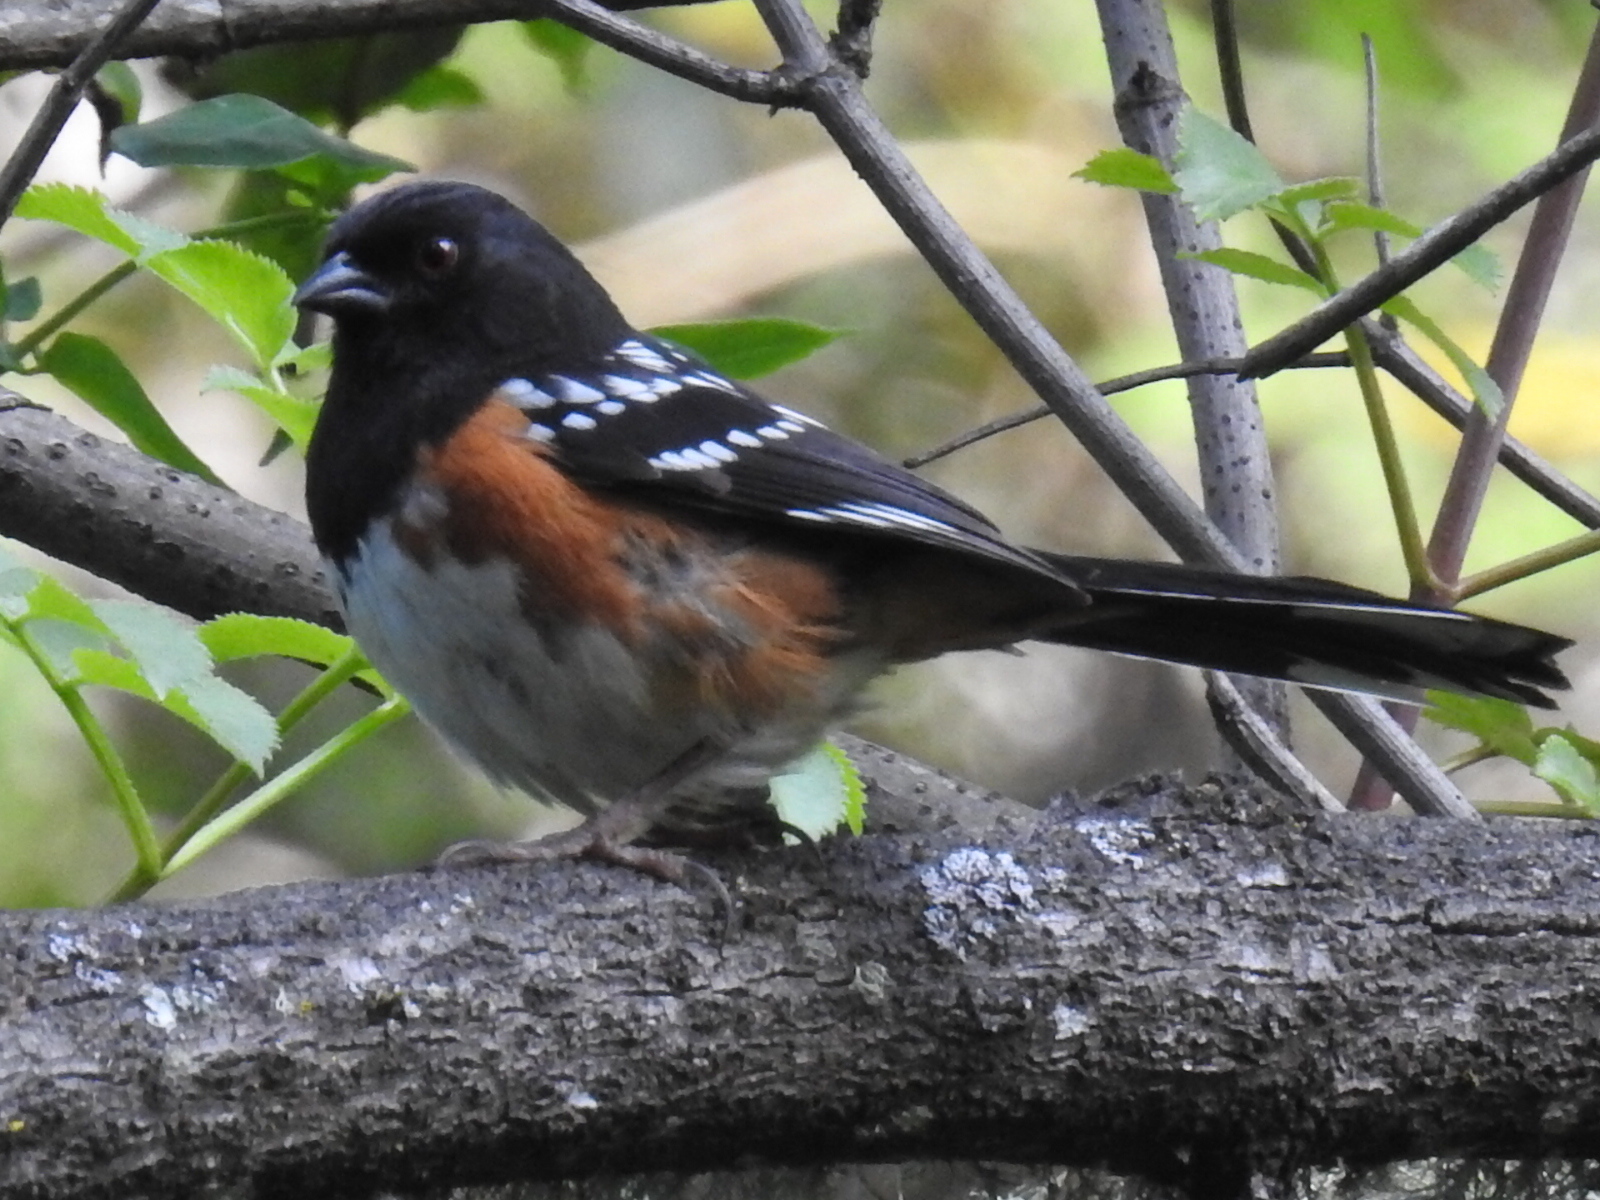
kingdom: Animalia
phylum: Chordata
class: Aves
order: Passeriformes
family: Passerellidae
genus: Pipilo
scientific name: Pipilo maculatus
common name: Spotted towhee
